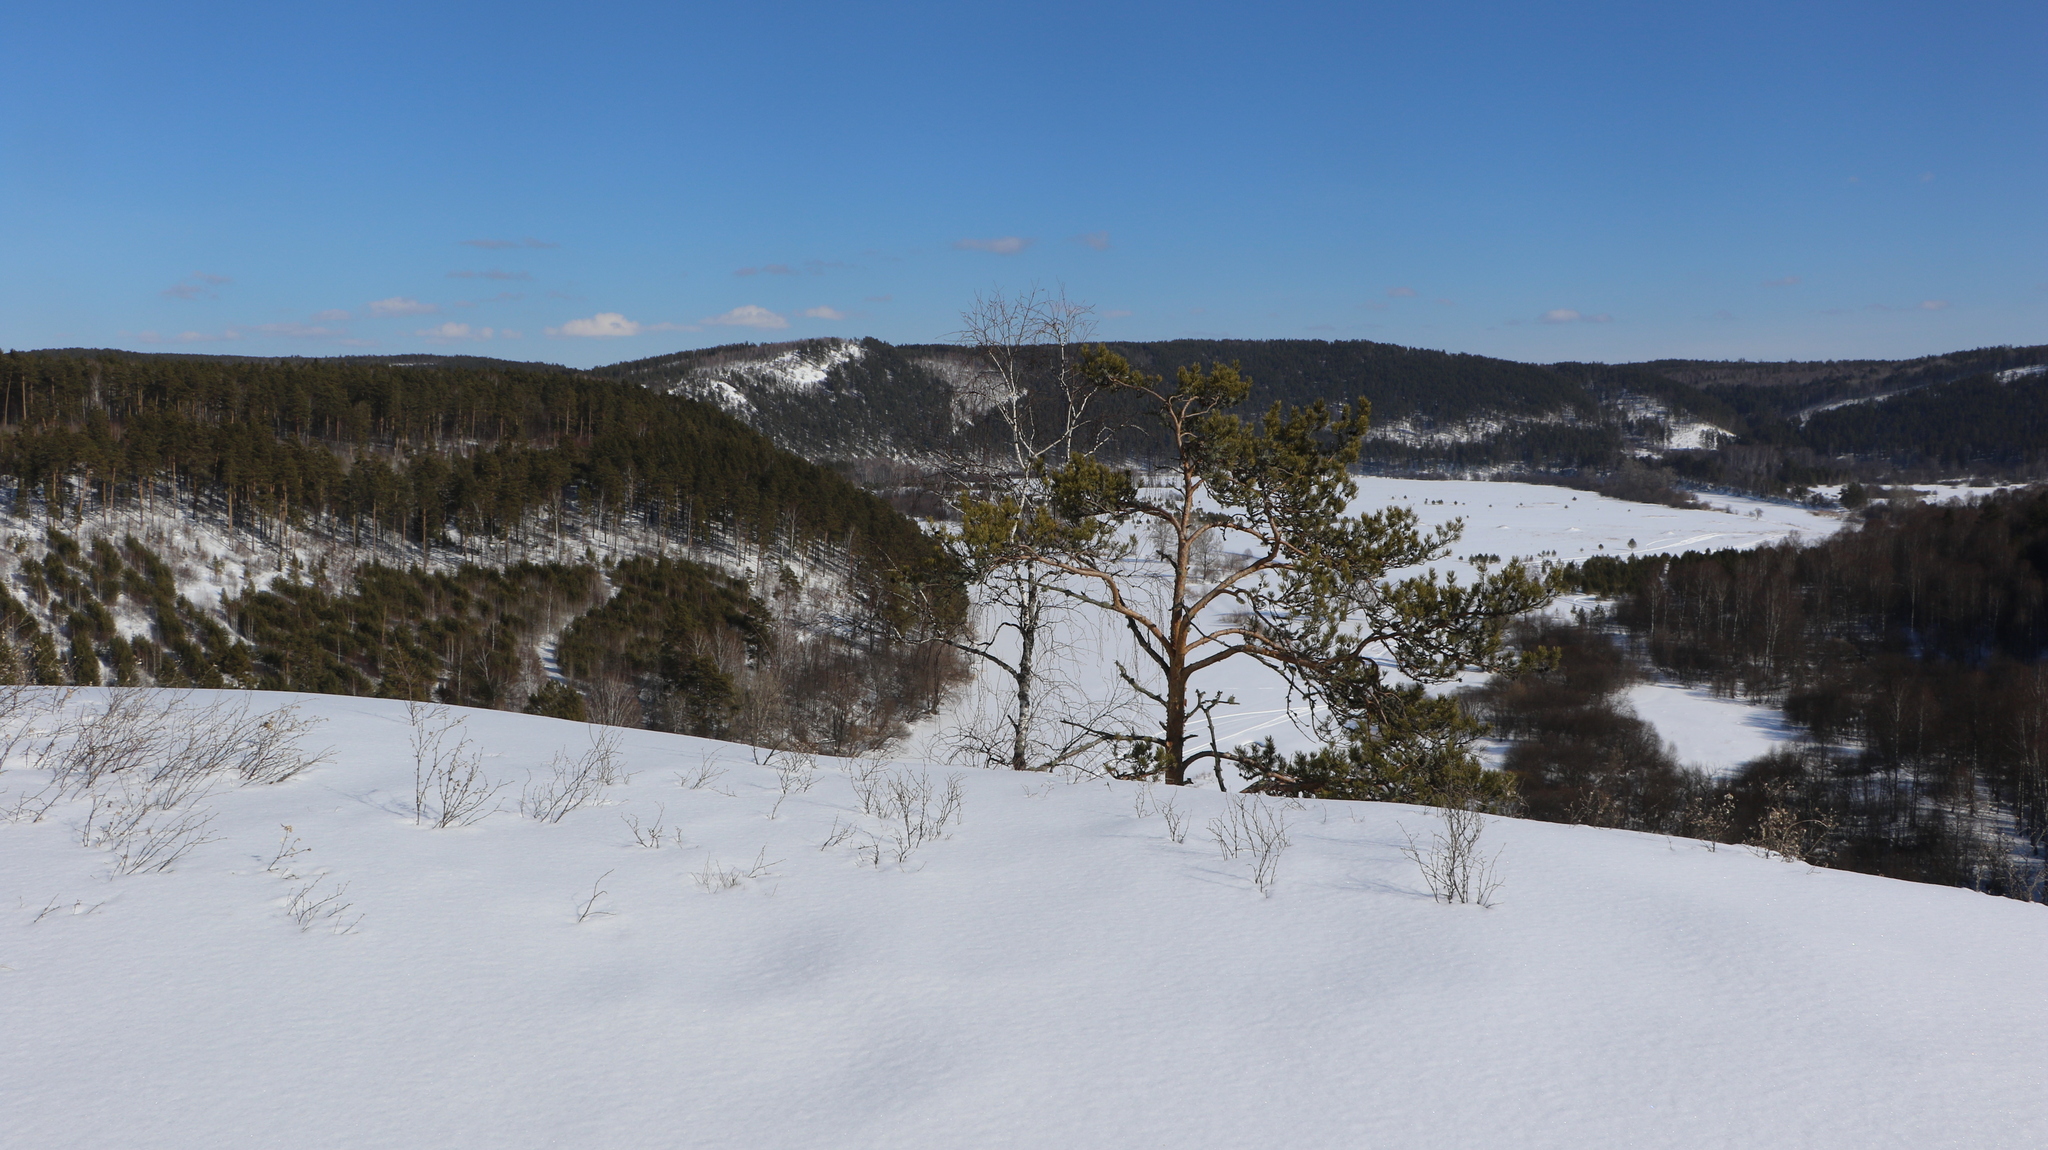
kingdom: Plantae
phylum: Tracheophyta
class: Magnoliopsida
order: Fagales
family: Betulaceae
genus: Betula
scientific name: Betula pendula
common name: Silver birch
